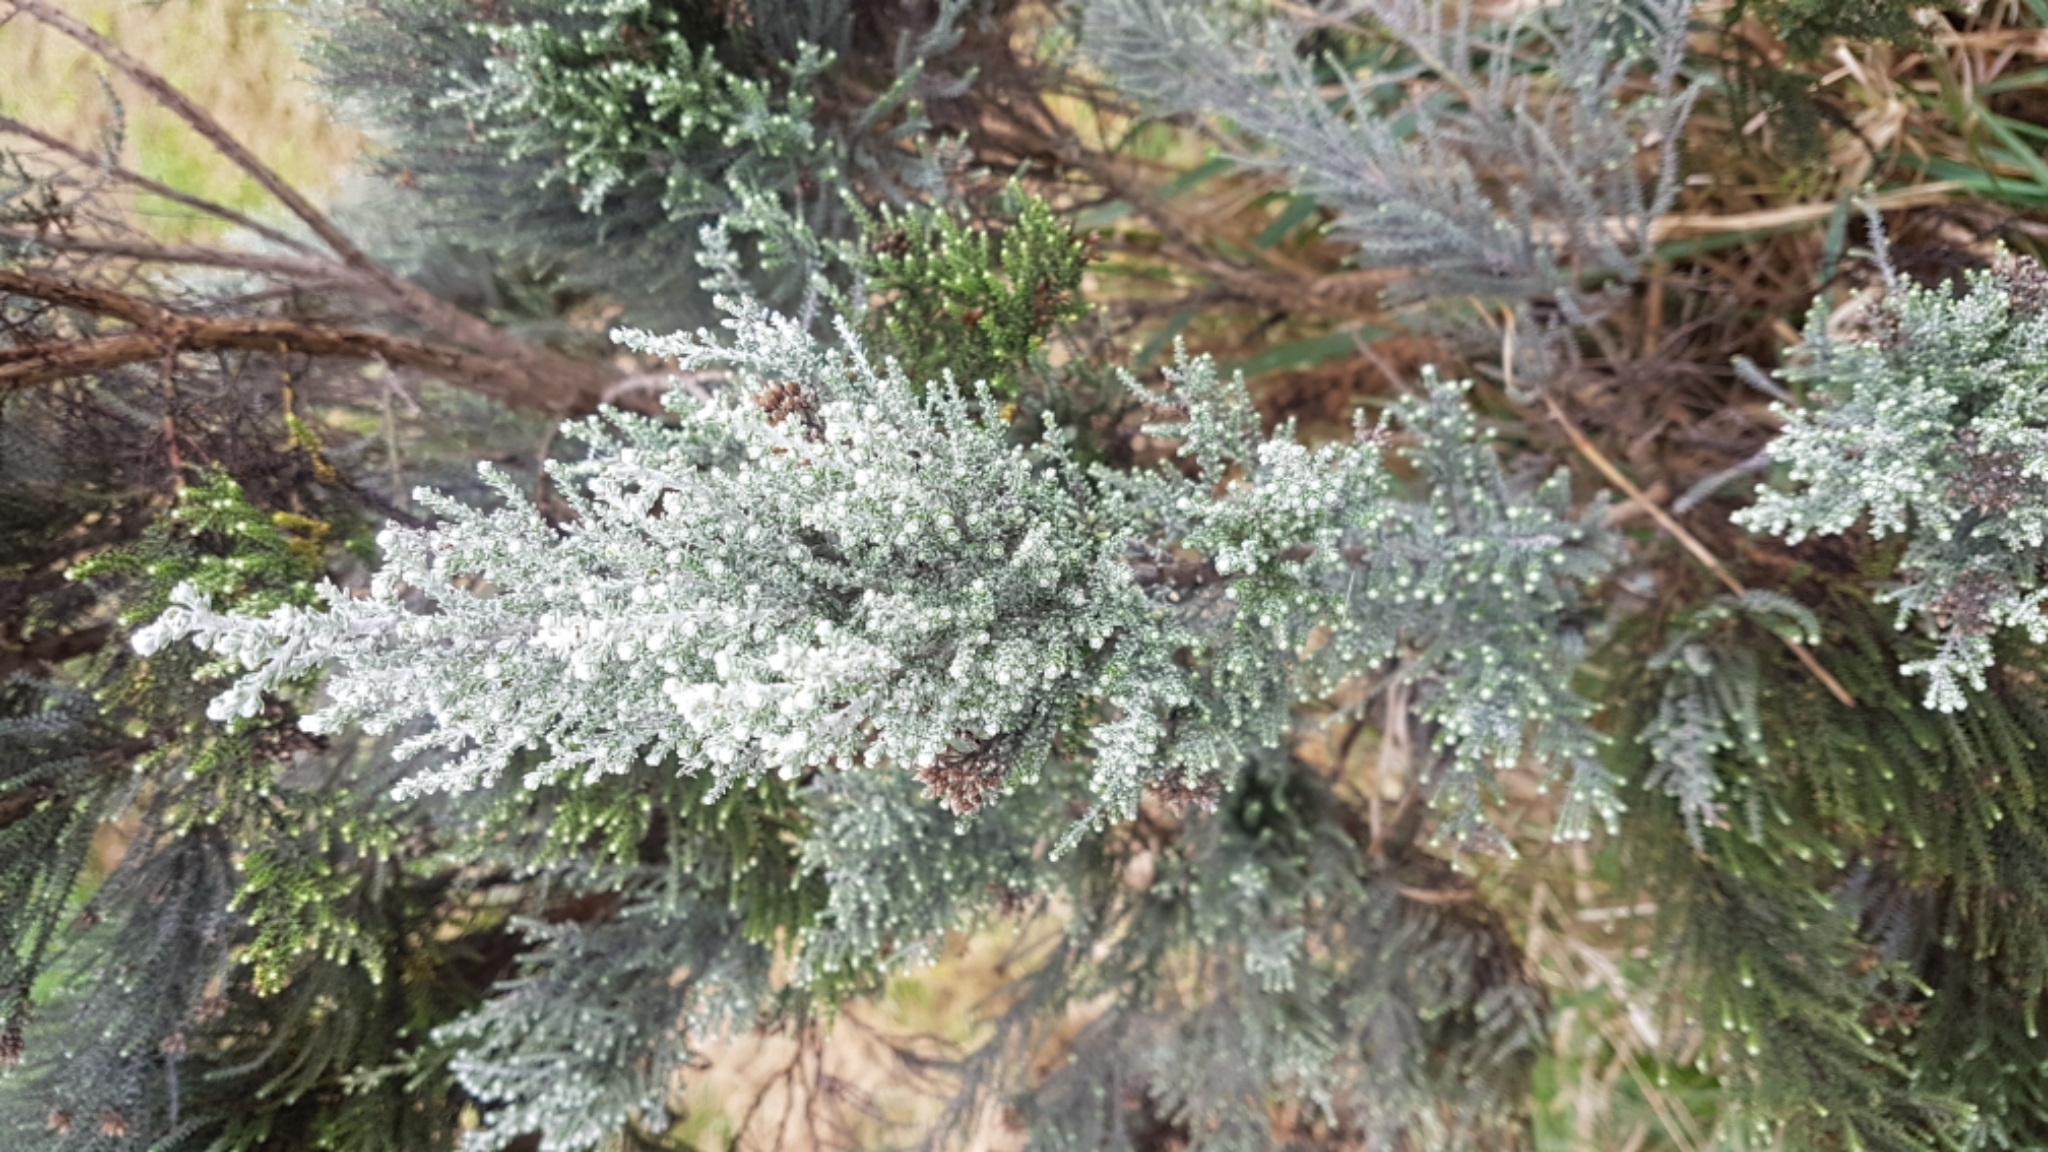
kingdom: Plantae
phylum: Tracheophyta
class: Magnoliopsida
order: Asterales
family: Asteraceae
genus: Ozothamnus
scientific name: Ozothamnus leptophyllus
